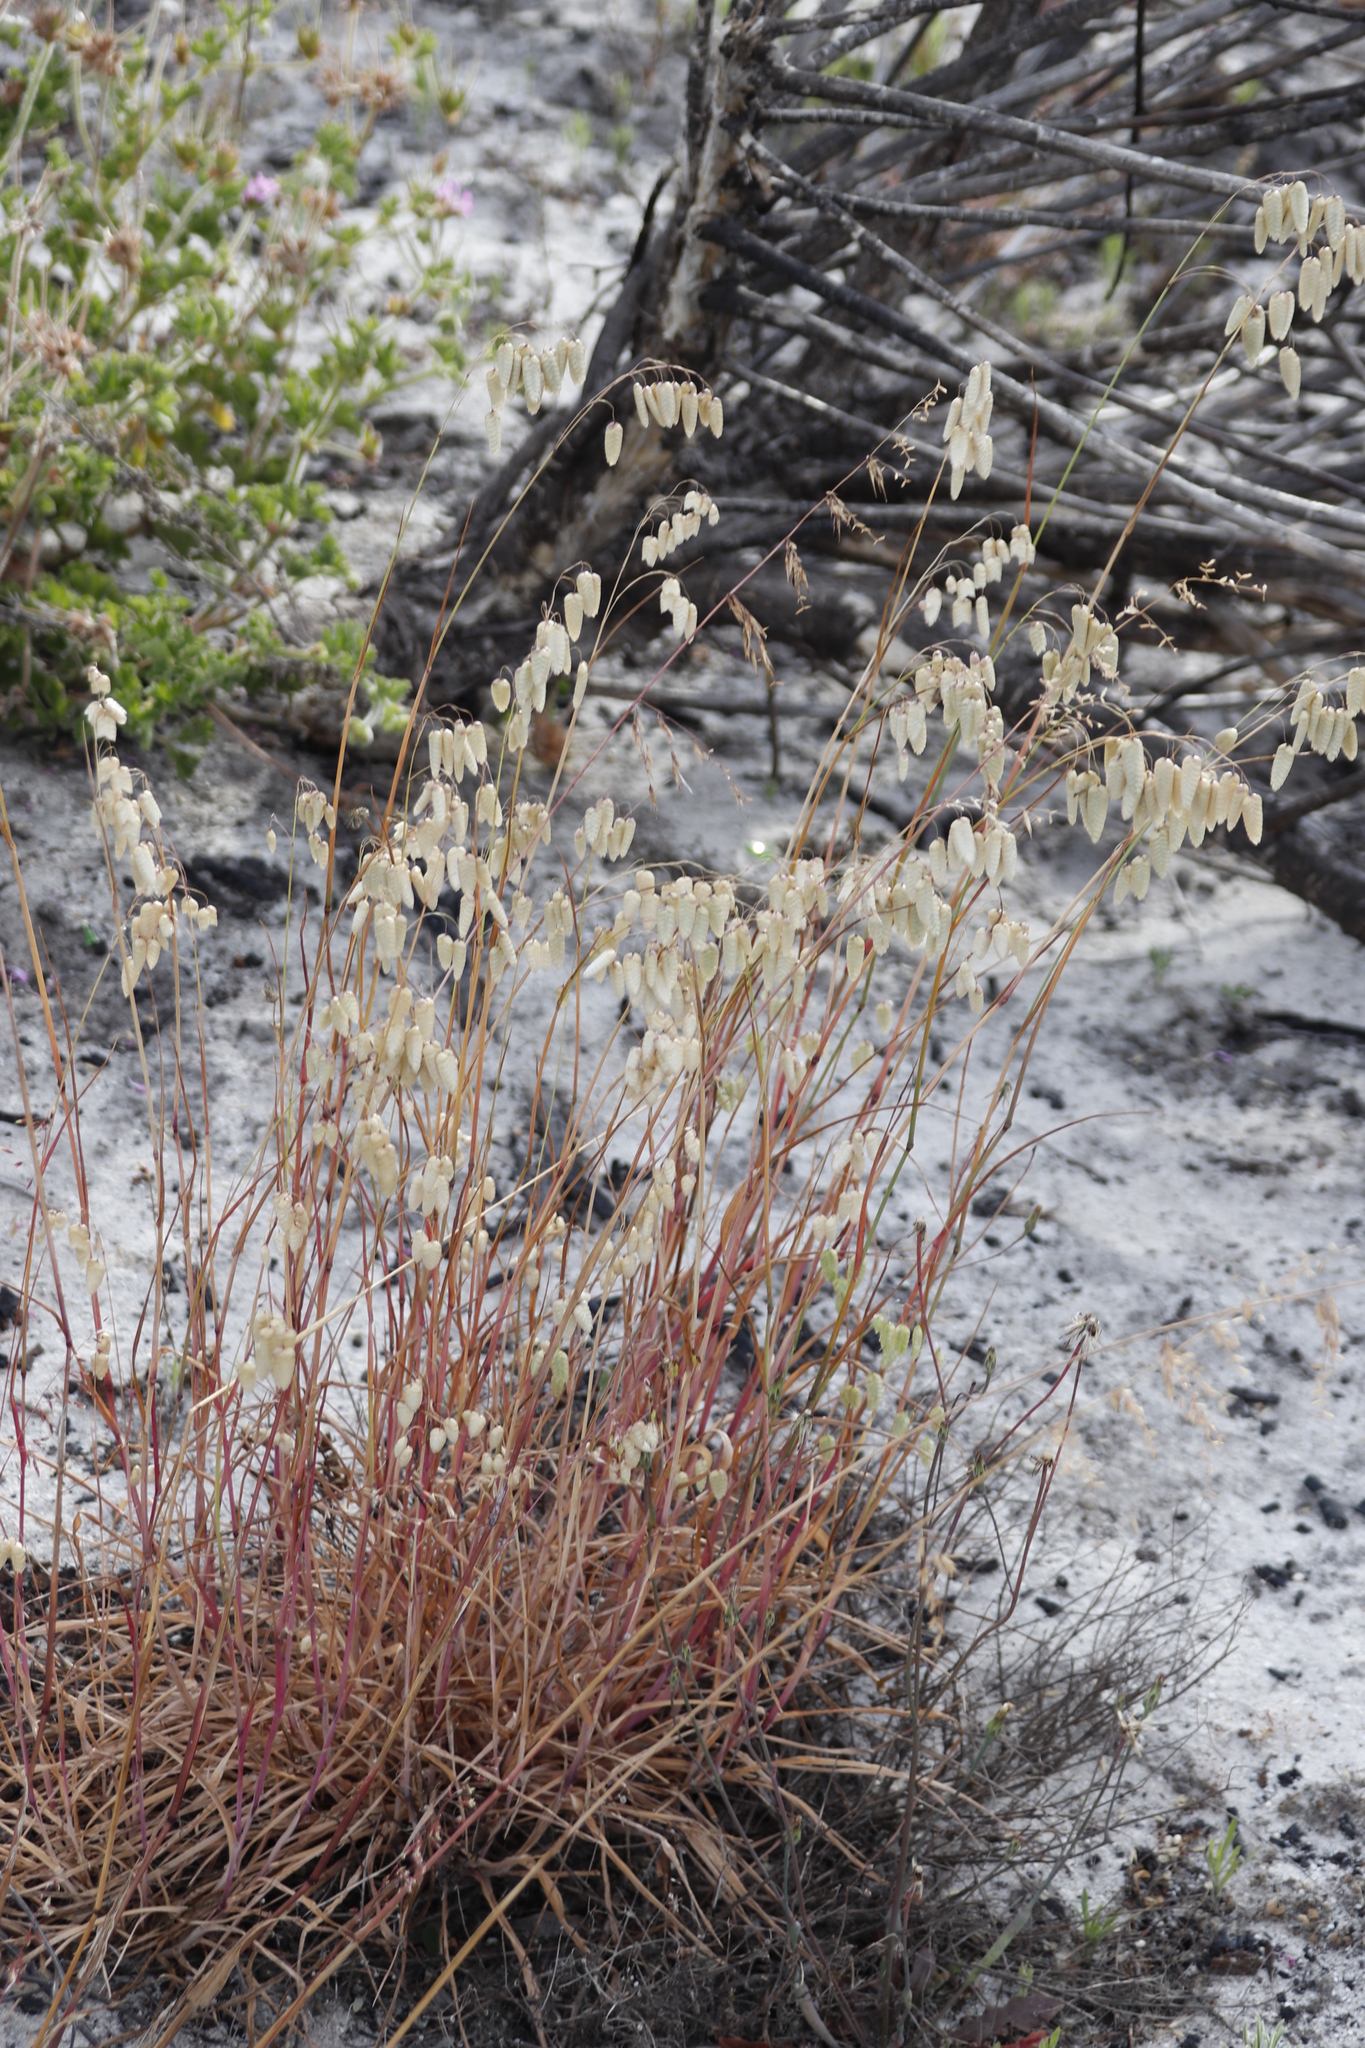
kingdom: Plantae
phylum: Tracheophyta
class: Liliopsida
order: Poales
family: Poaceae
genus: Briza
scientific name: Briza maxima
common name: Big quakinggrass
